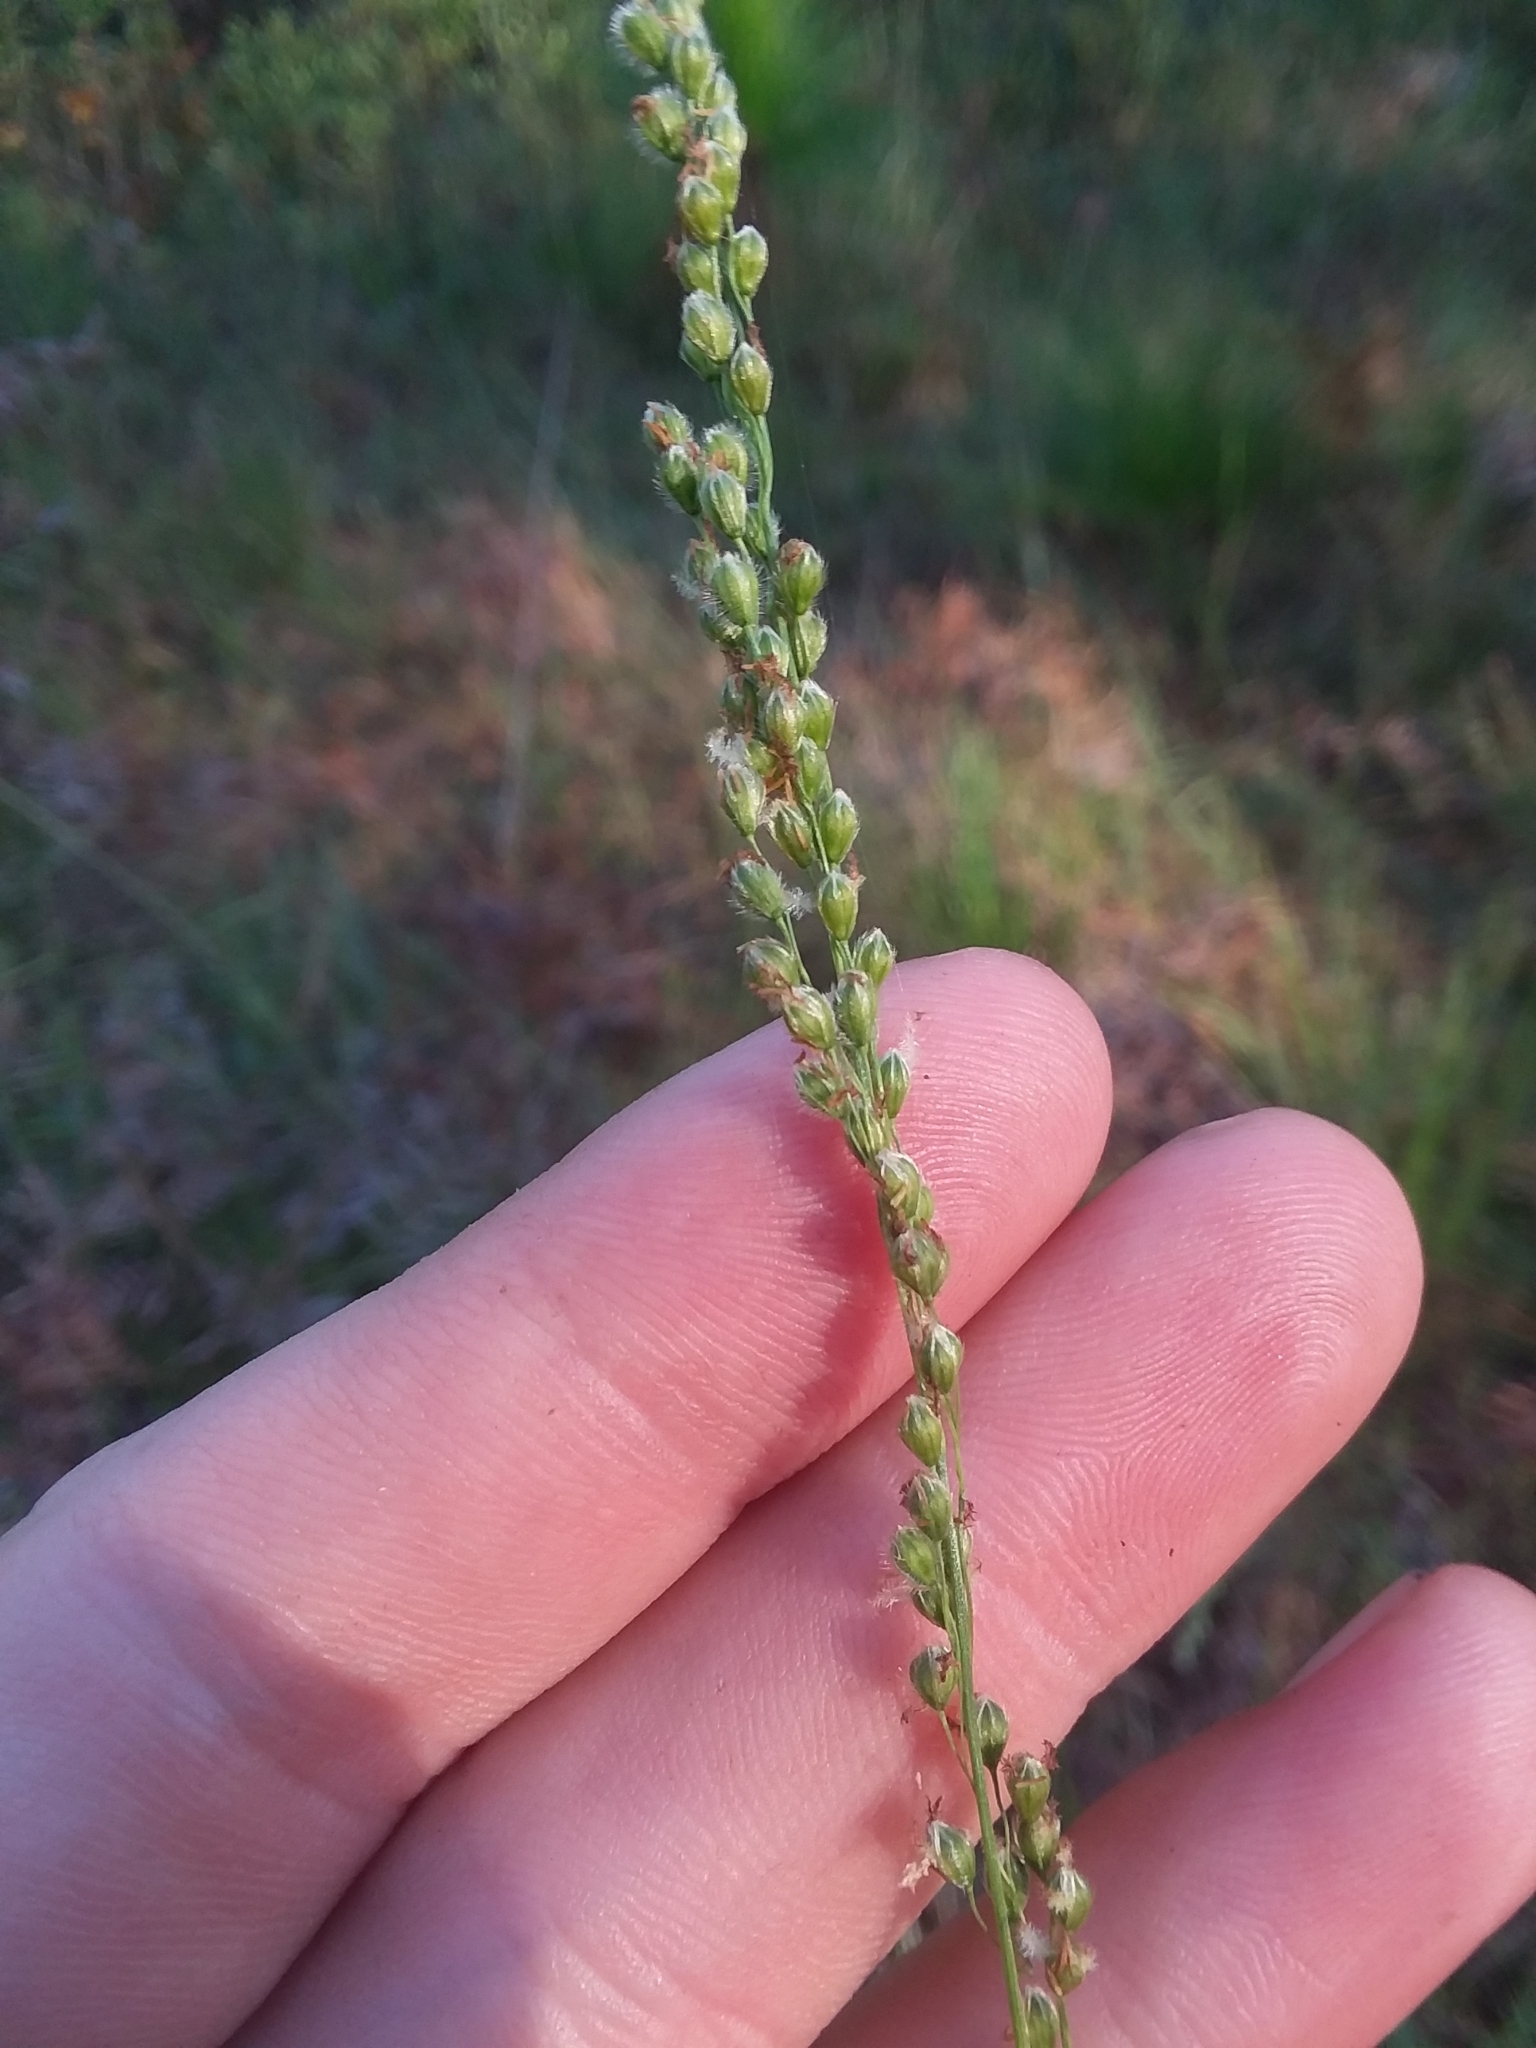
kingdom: Plantae
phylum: Tracheophyta
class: Liliopsida
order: Poales
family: Poaceae
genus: Anthenantia
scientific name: Anthenantia villosa
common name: Green silkyscale
